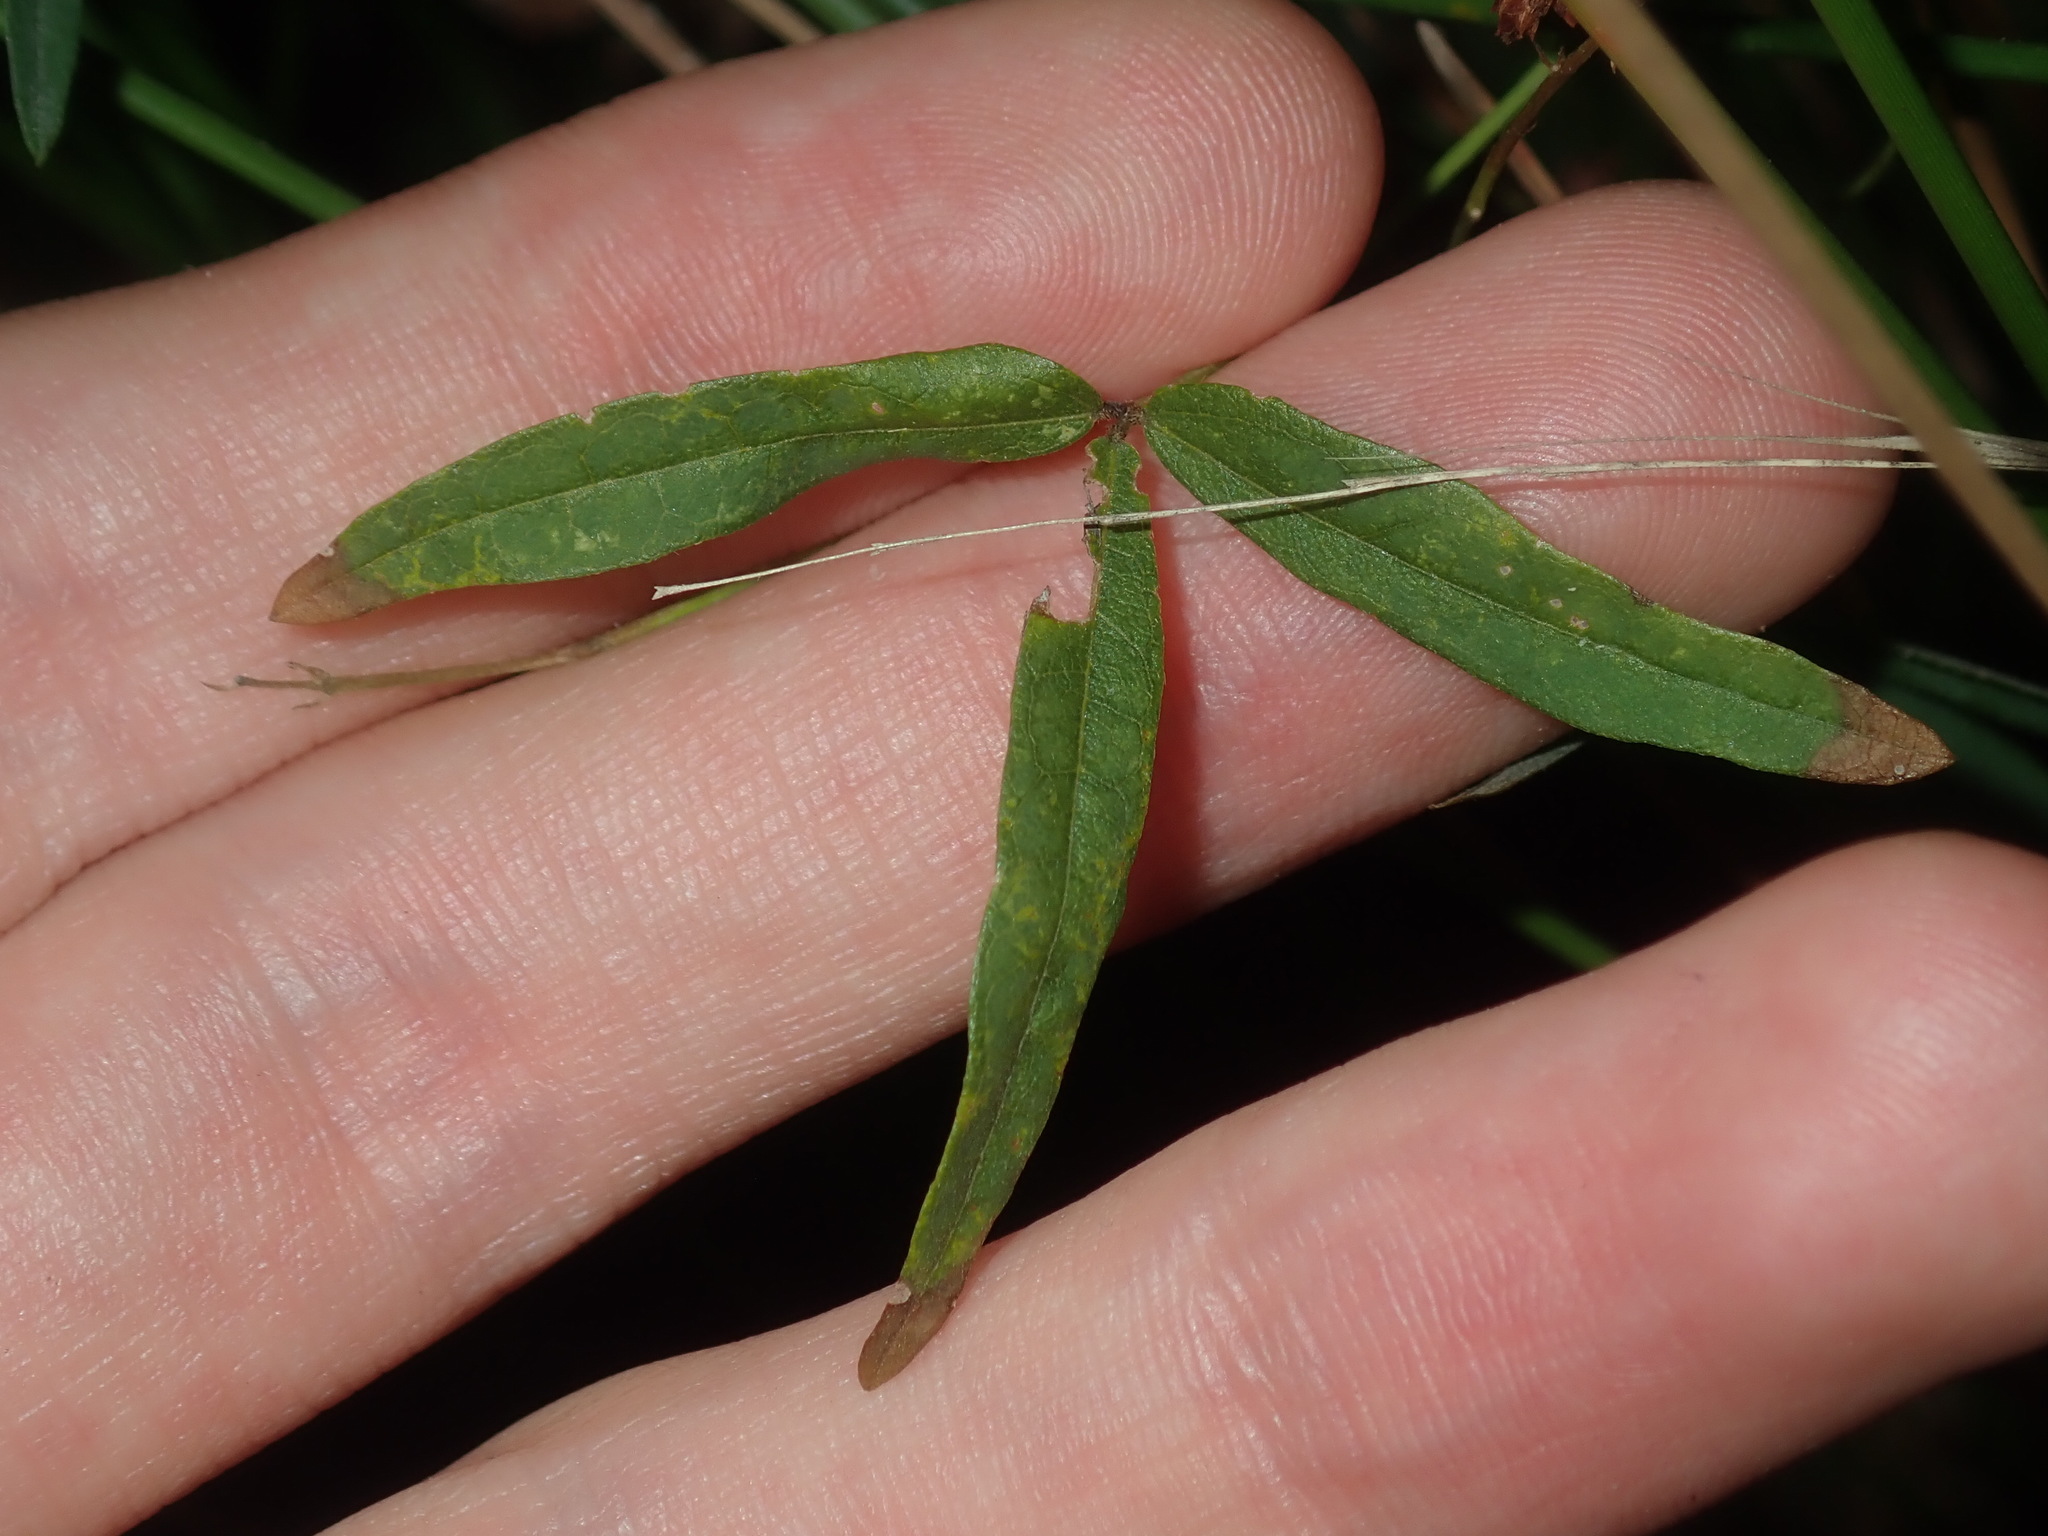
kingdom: Plantae
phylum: Tracheophyta
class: Magnoliopsida
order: Fabales
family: Fabaceae
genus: Glycine
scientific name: Glycine clandestina
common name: Twining glycine
